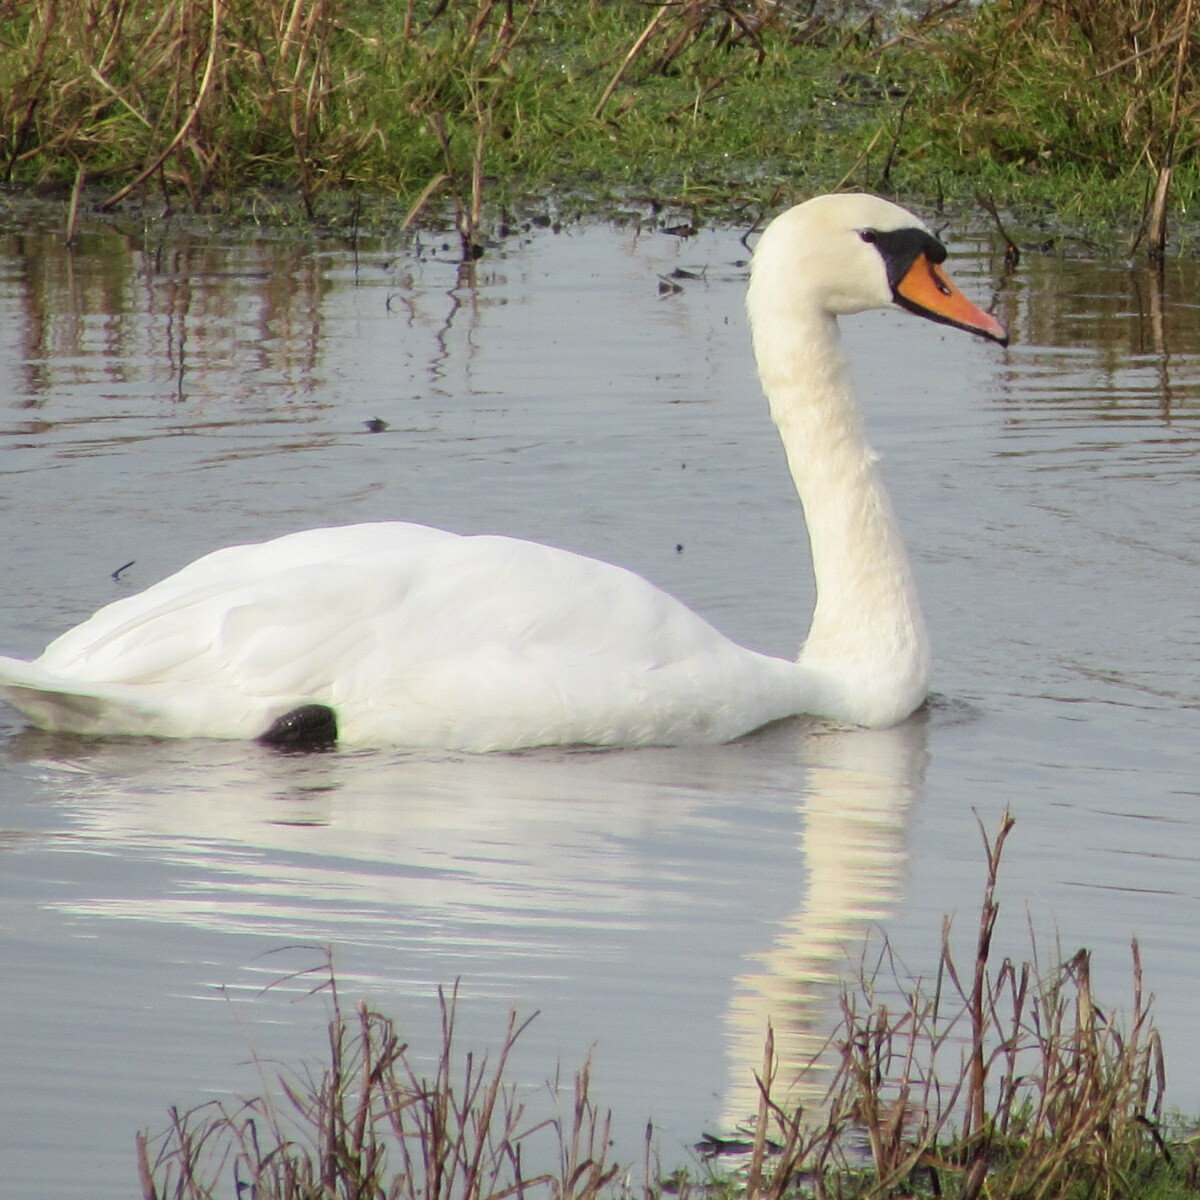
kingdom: Animalia
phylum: Chordata
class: Aves
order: Anseriformes
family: Anatidae
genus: Cygnus
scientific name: Cygnus olor
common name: Mute swan
